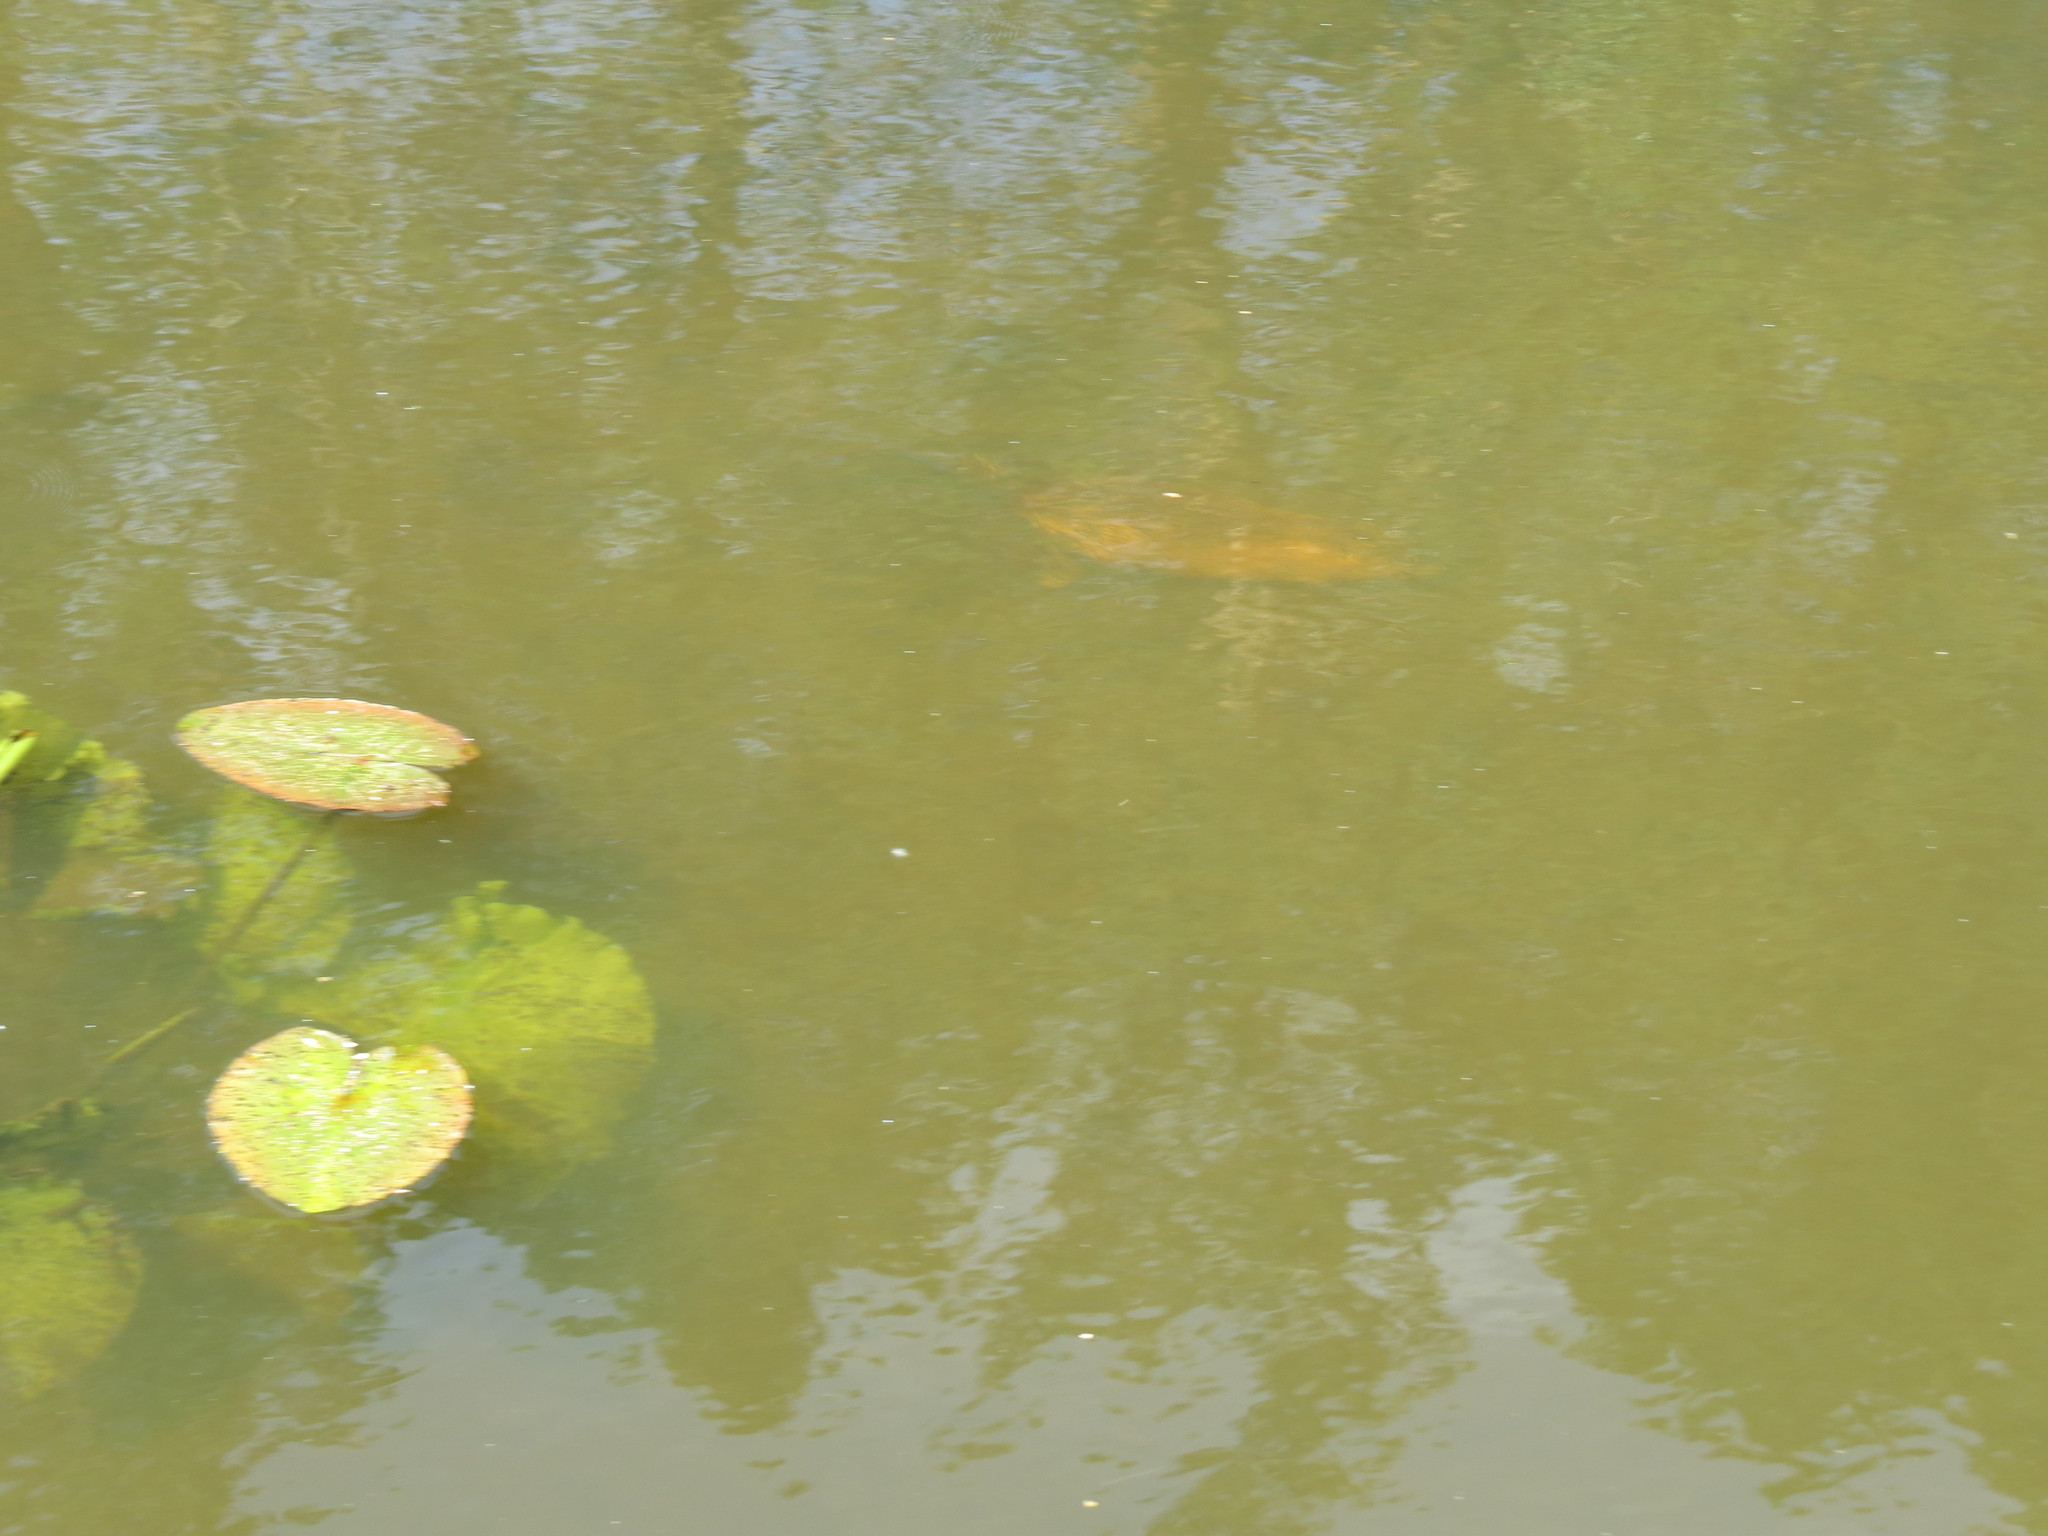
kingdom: Animalia
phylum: Chordata
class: Mammalia
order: Rodentia
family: Cricetidae
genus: Ondatra
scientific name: Ondatra zibethicus
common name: Muskrat
